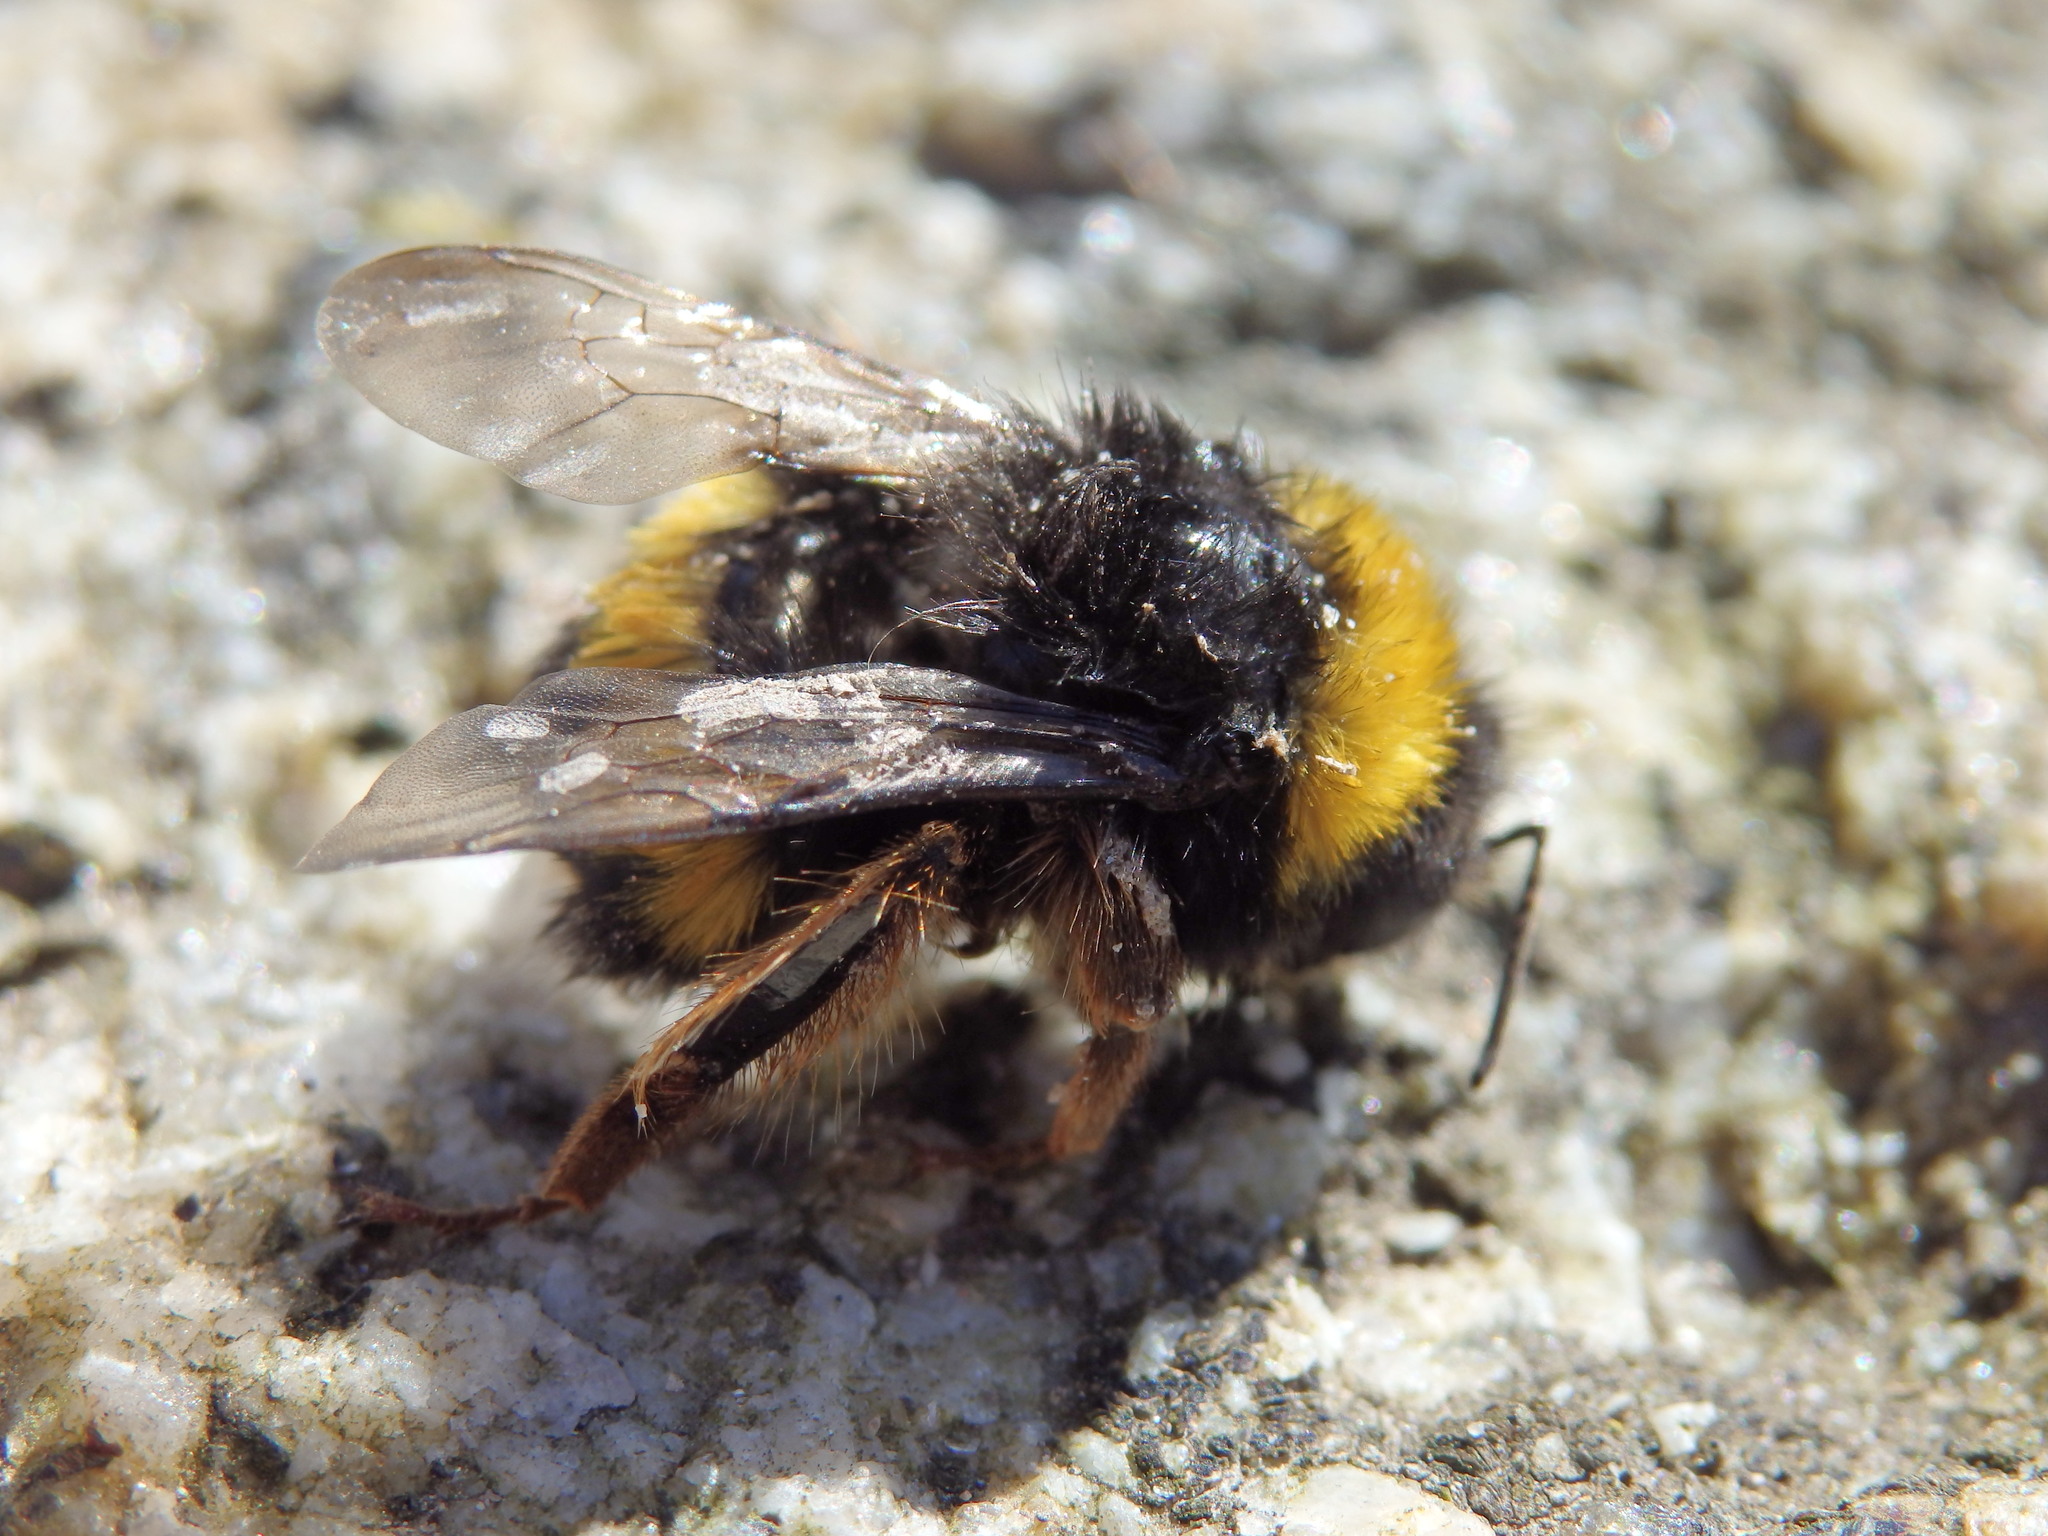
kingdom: Animalia
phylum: Arthropoda
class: Insecta
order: Hymenoptera
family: Apidae
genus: Bombus
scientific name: Bombus terrestris
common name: Buff-tailed bumblebee
